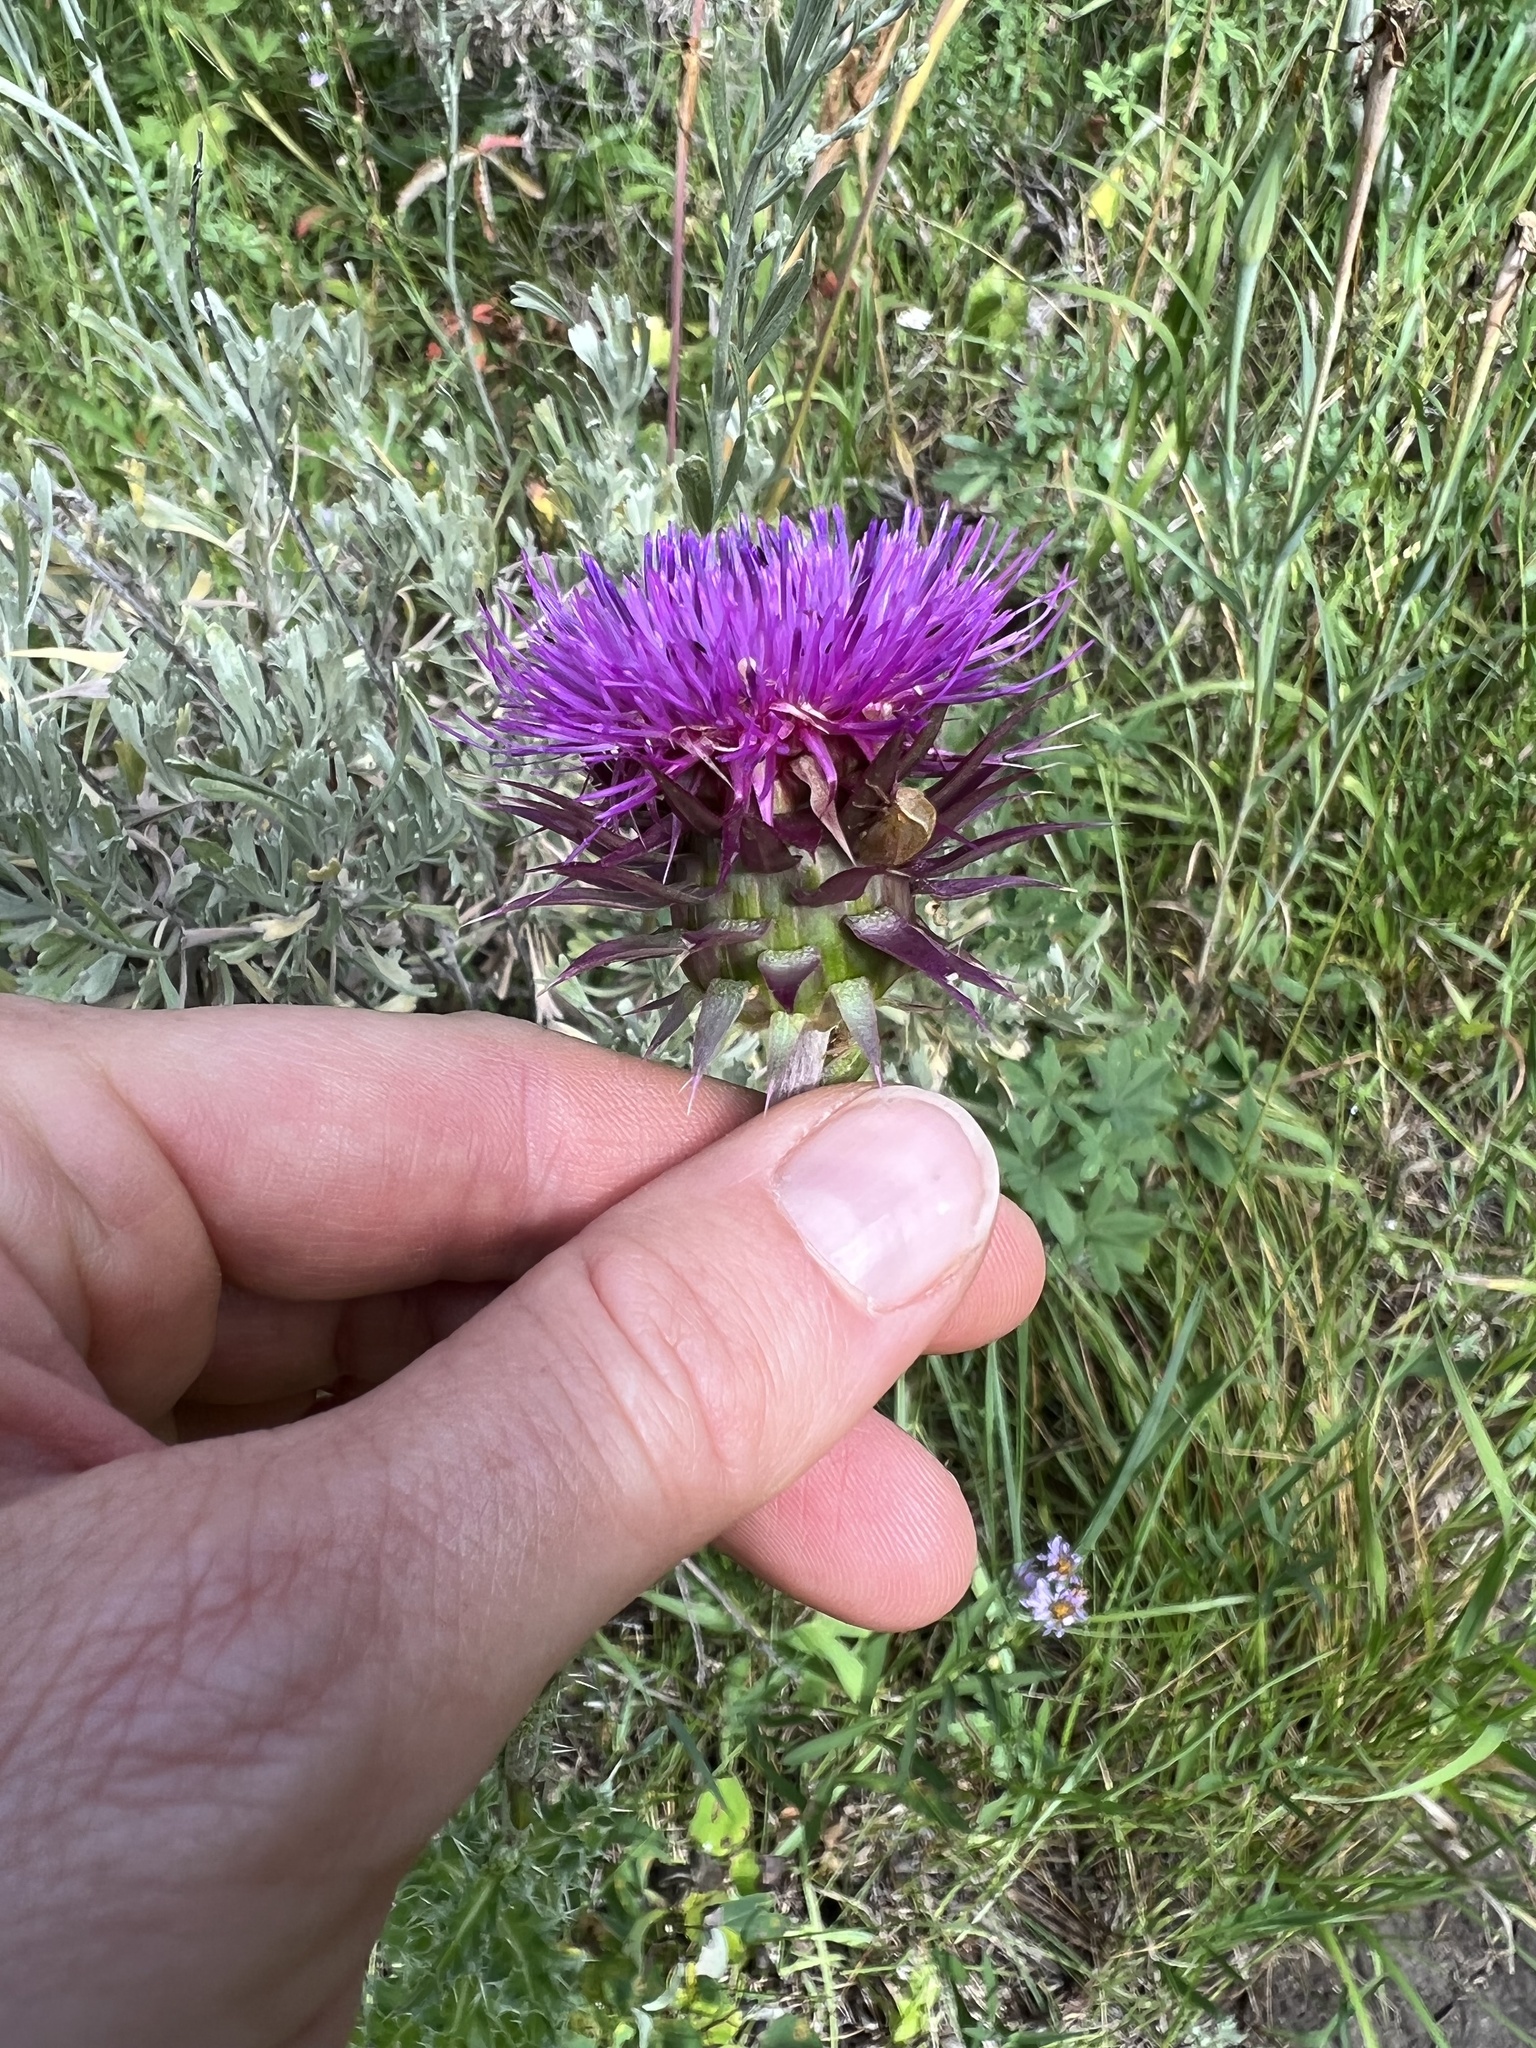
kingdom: Plantae
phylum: Tracheophyta
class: Magnoliopsida
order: Asterales
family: Asteraceae
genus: Carduus
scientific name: Carduus nutans
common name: Musk thistle
